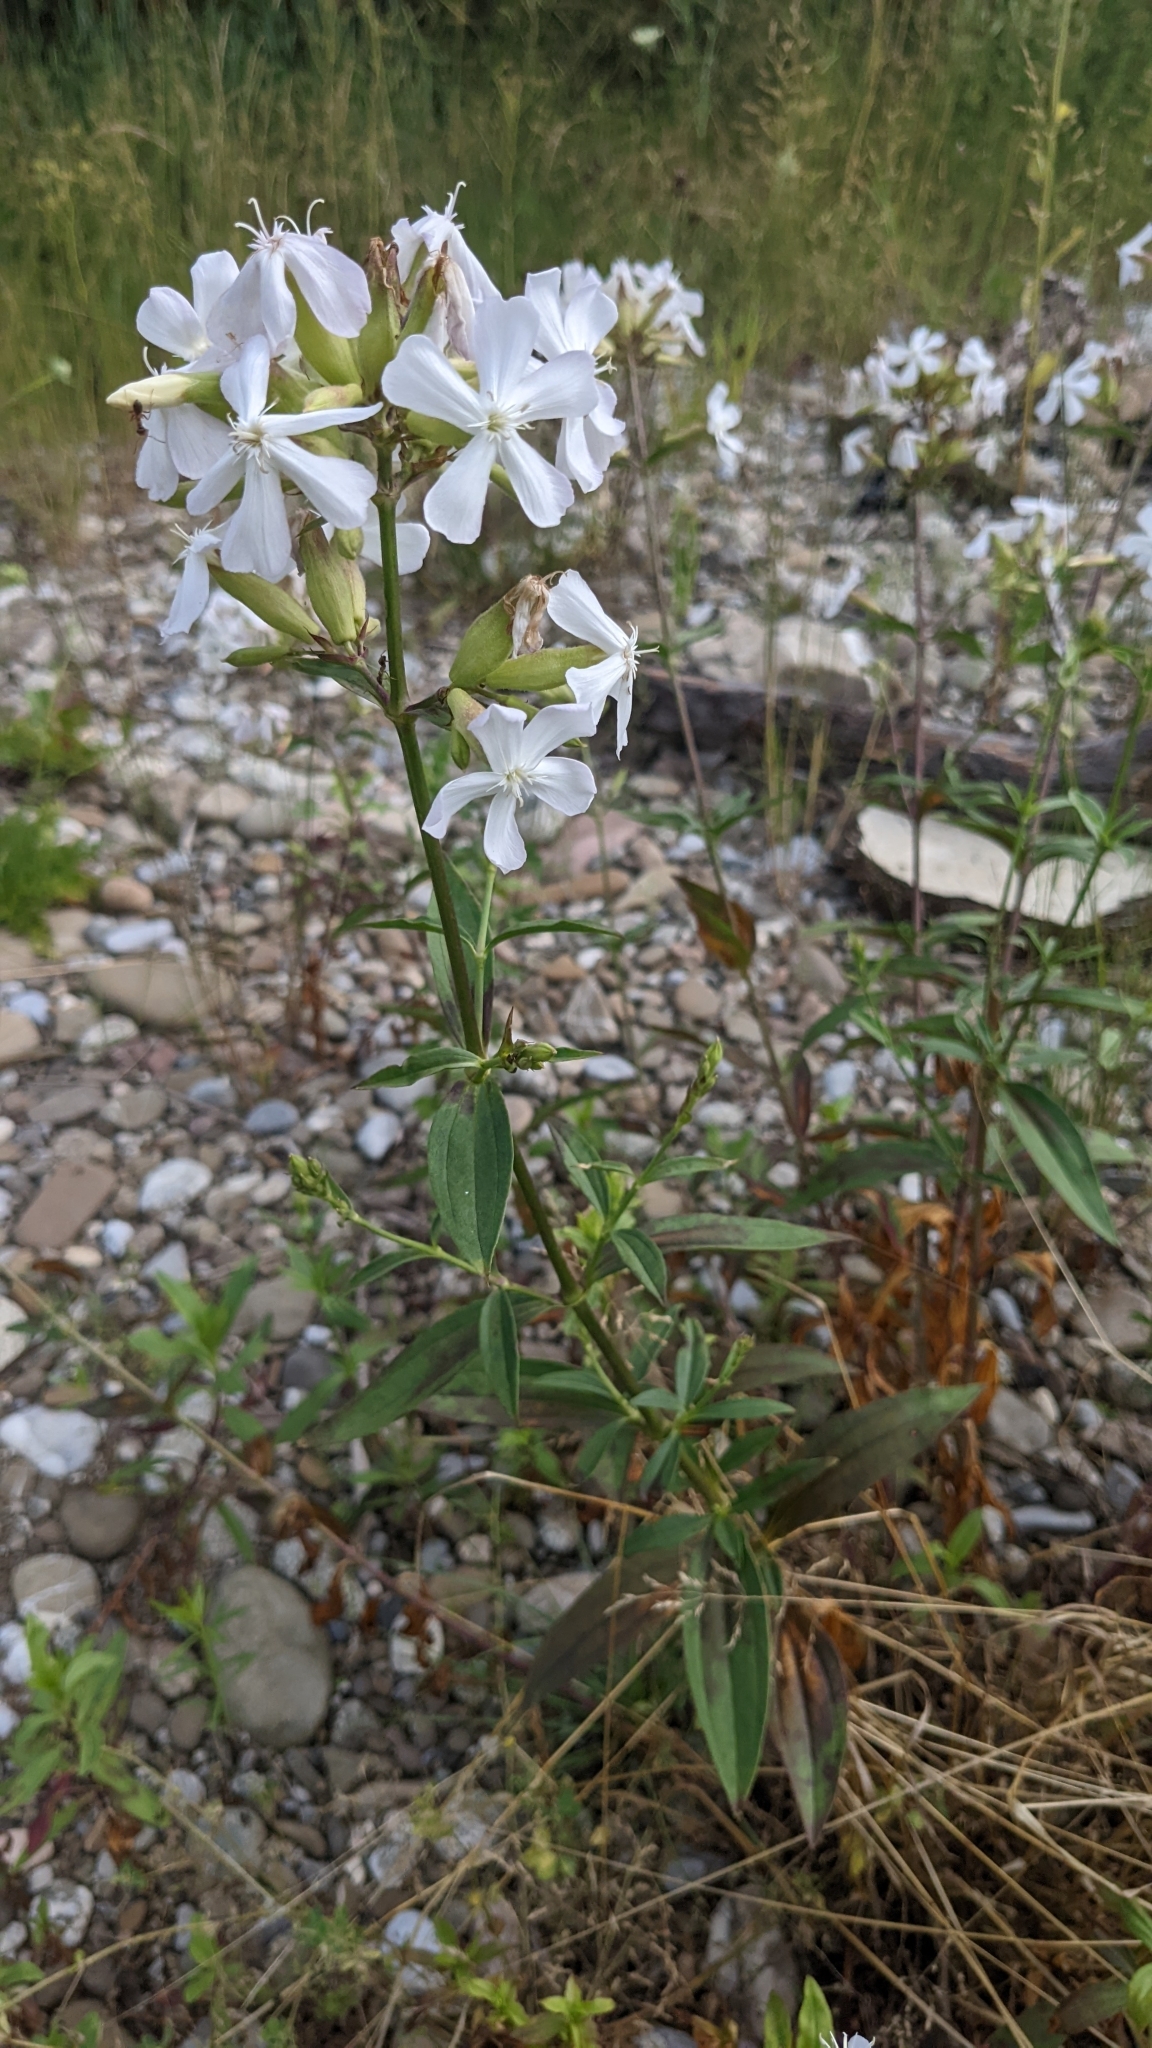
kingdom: Plantae
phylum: Tracheophyta
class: Magnoliopsida
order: Caryophyllales
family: Caryophyllaceae
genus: Saponaria
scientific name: Saponaria officinalis
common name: Soapwort
